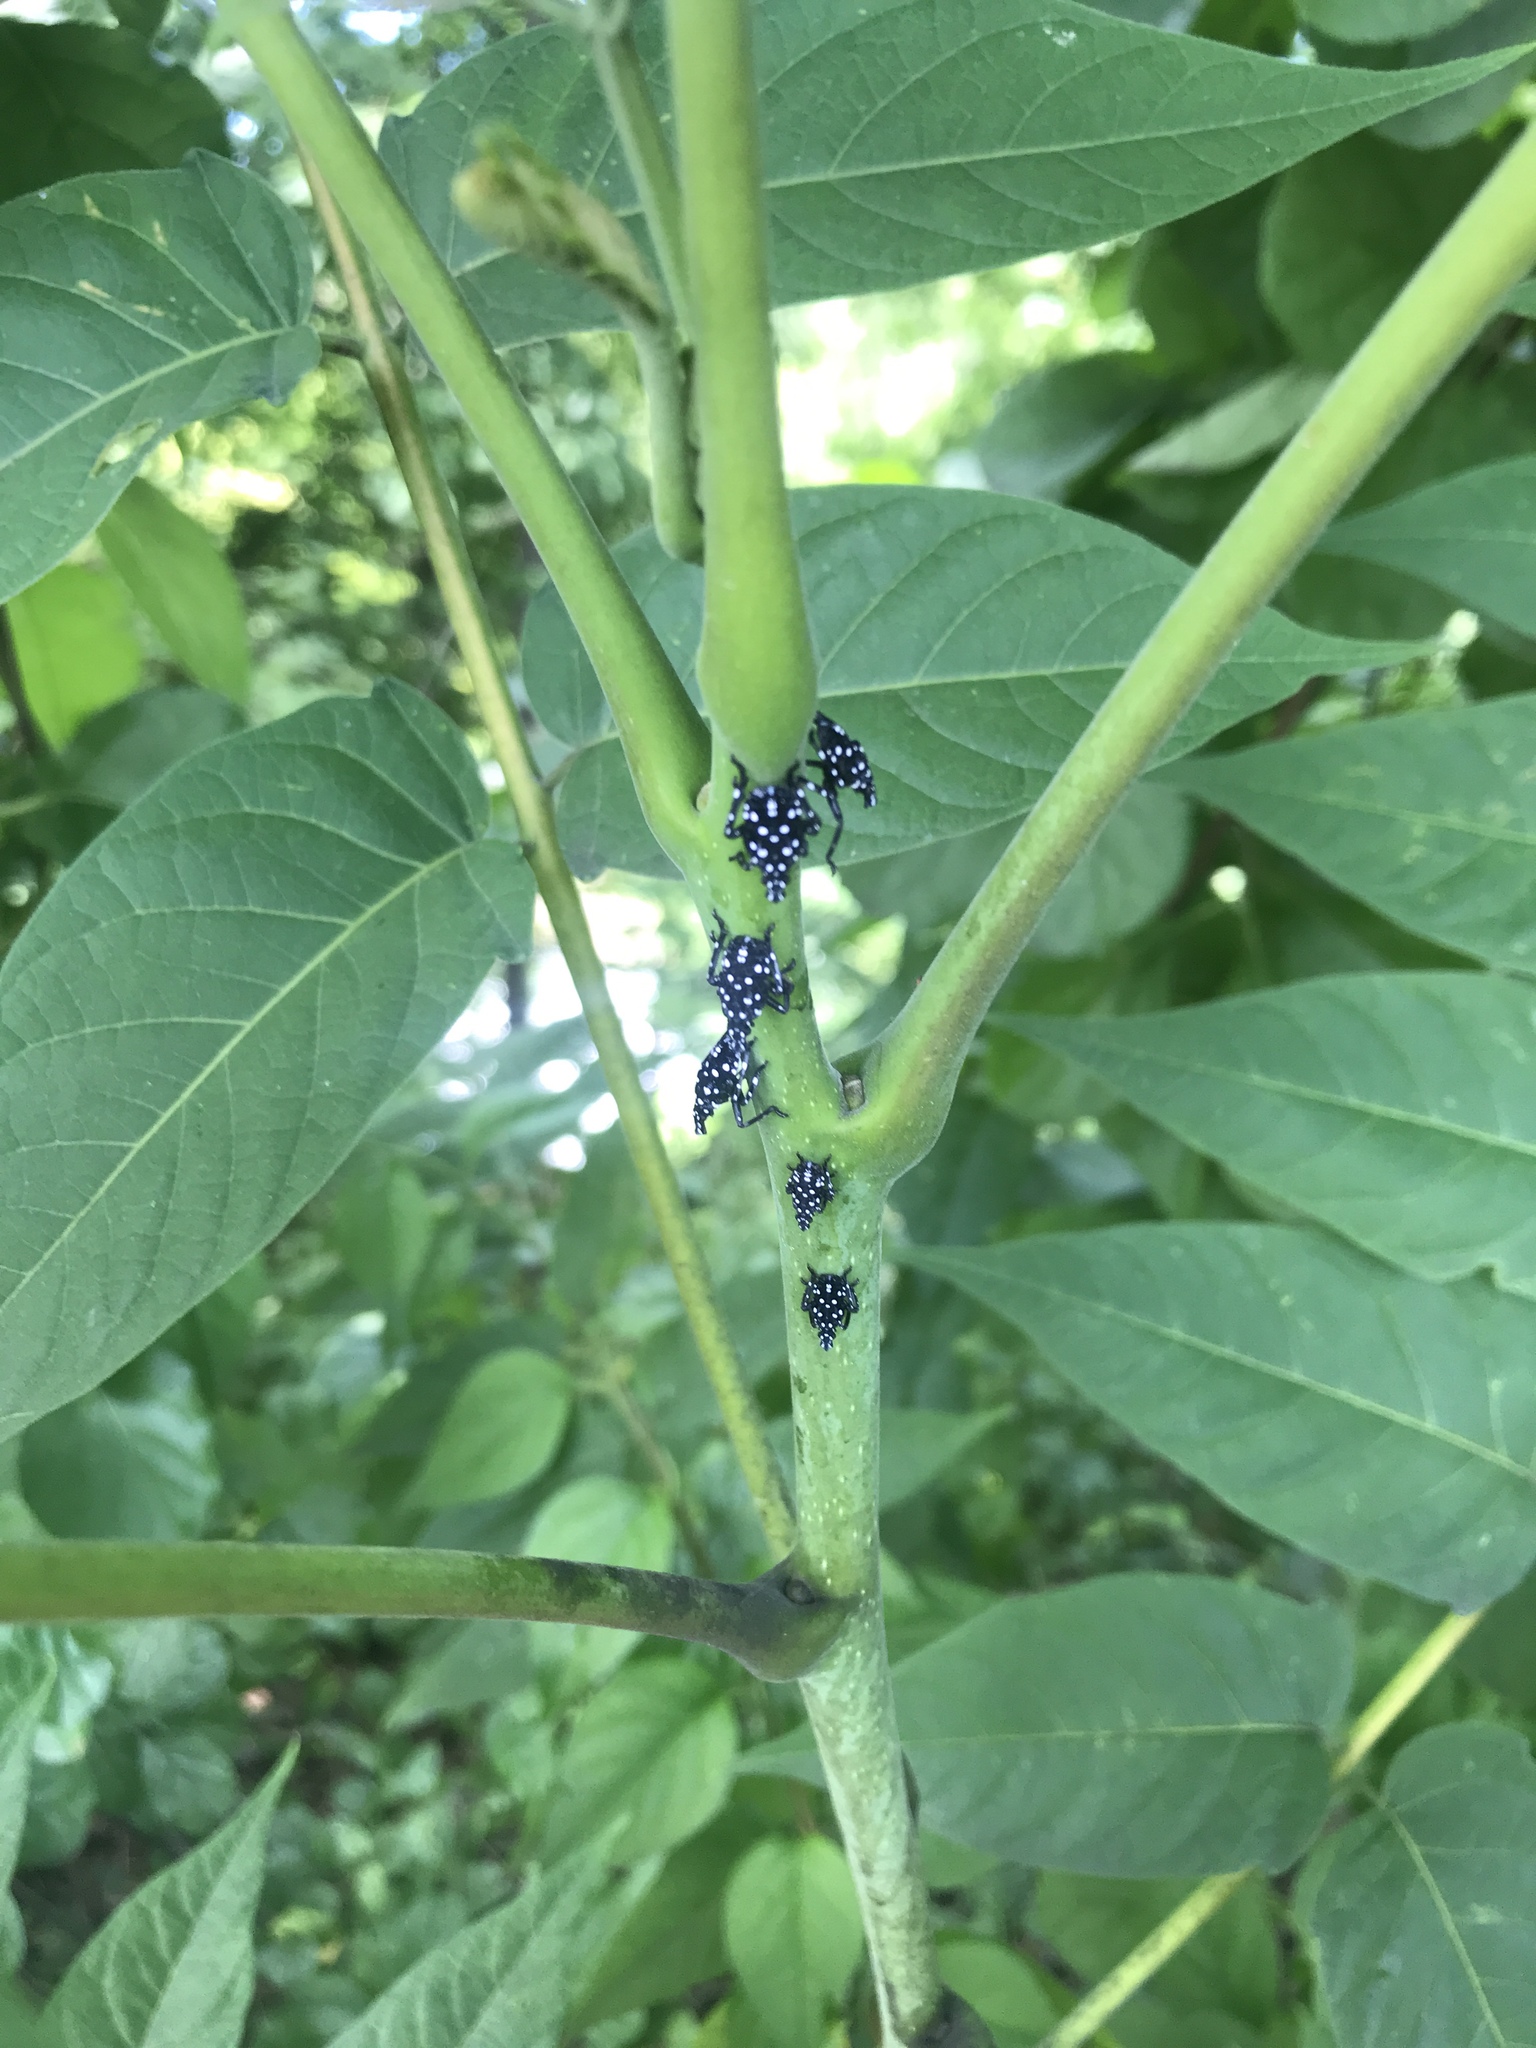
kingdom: Animalia
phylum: Arthropoda
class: Insecta
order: Hemiptera
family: Fulgoridae
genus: Lycorma
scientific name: Lycorma delicatula
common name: Spotted lanternfly
